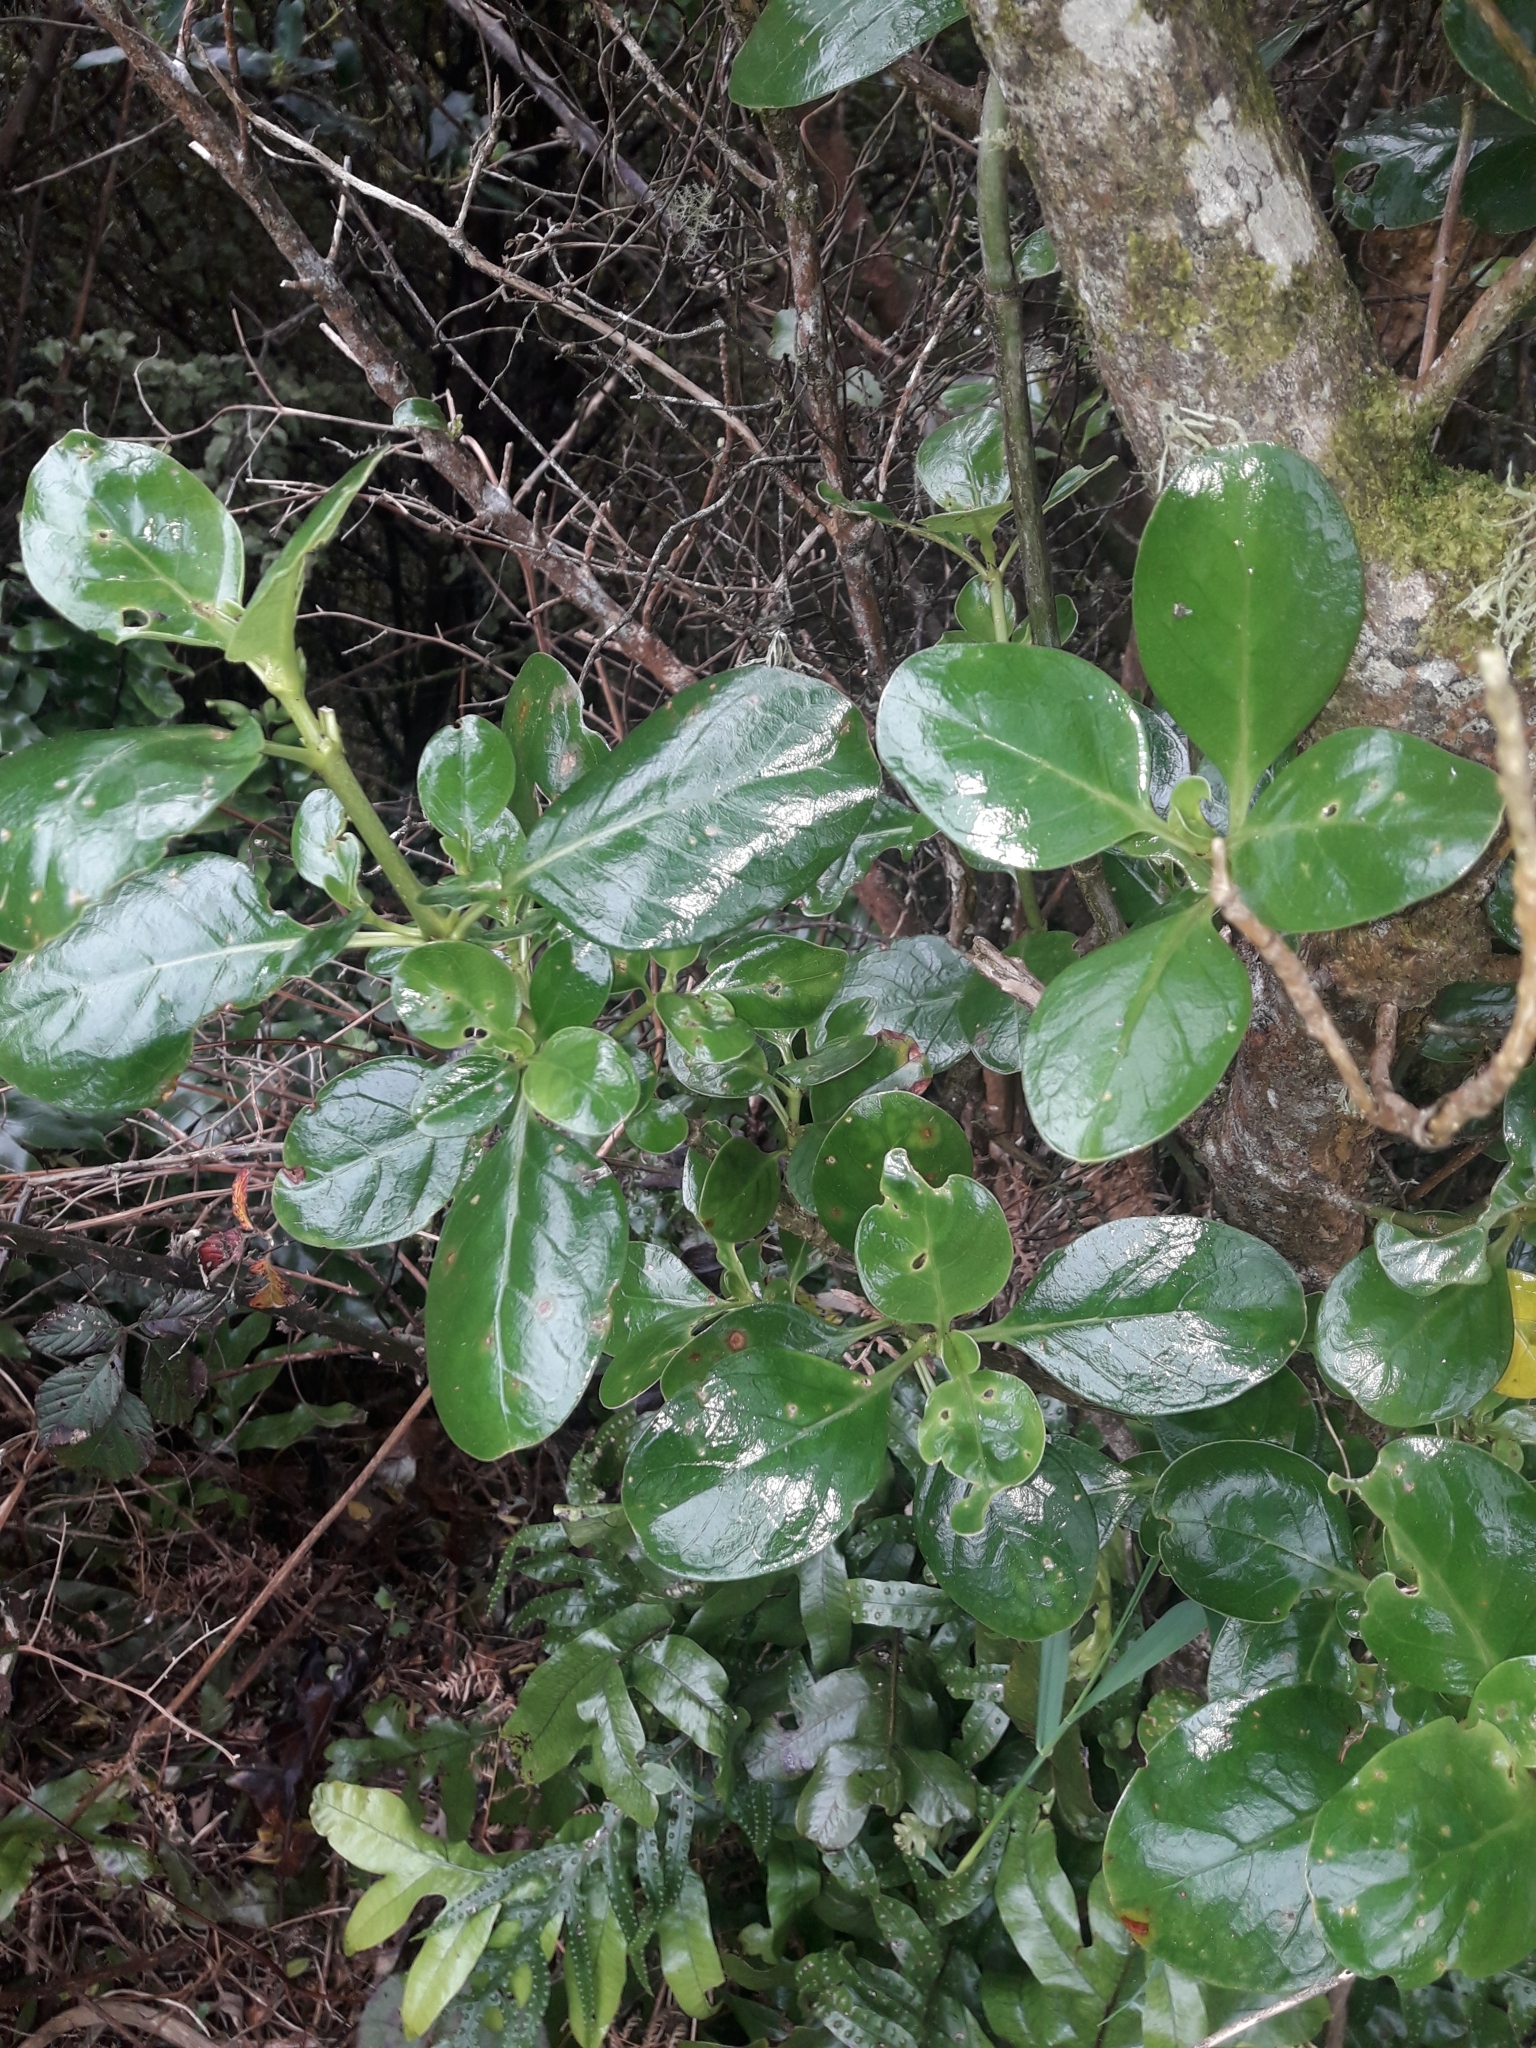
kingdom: Plantae
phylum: Tracheophyta
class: Magnoliopsida
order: Gentianales
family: Rubiaceae
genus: Coprosma
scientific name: Coprosma repens
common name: Tree bedstraw
